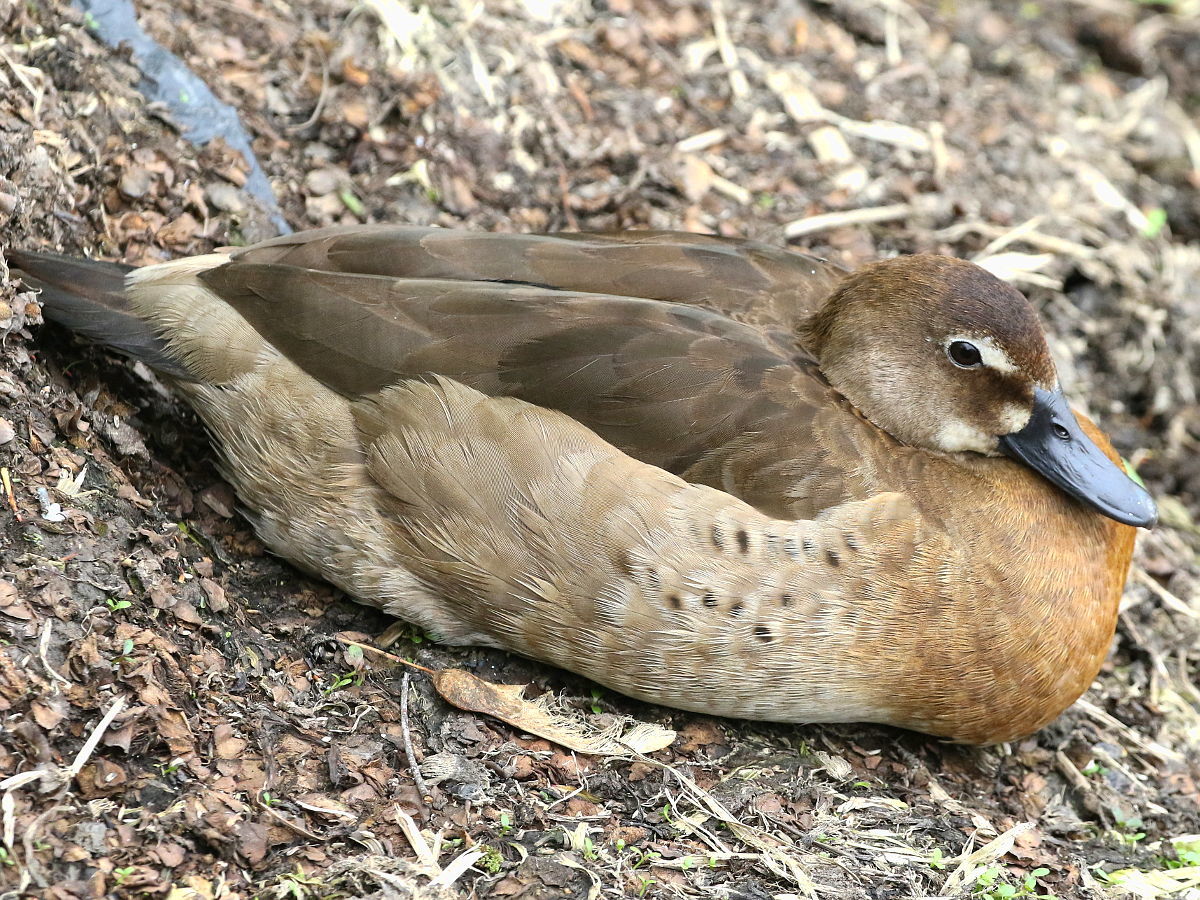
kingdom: Animalia
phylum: Chordata
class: Aves
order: Anseriformes
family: Anatidae
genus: Amazonetta
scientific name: Amazonetta brasiliensis
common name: Brazilian teal
